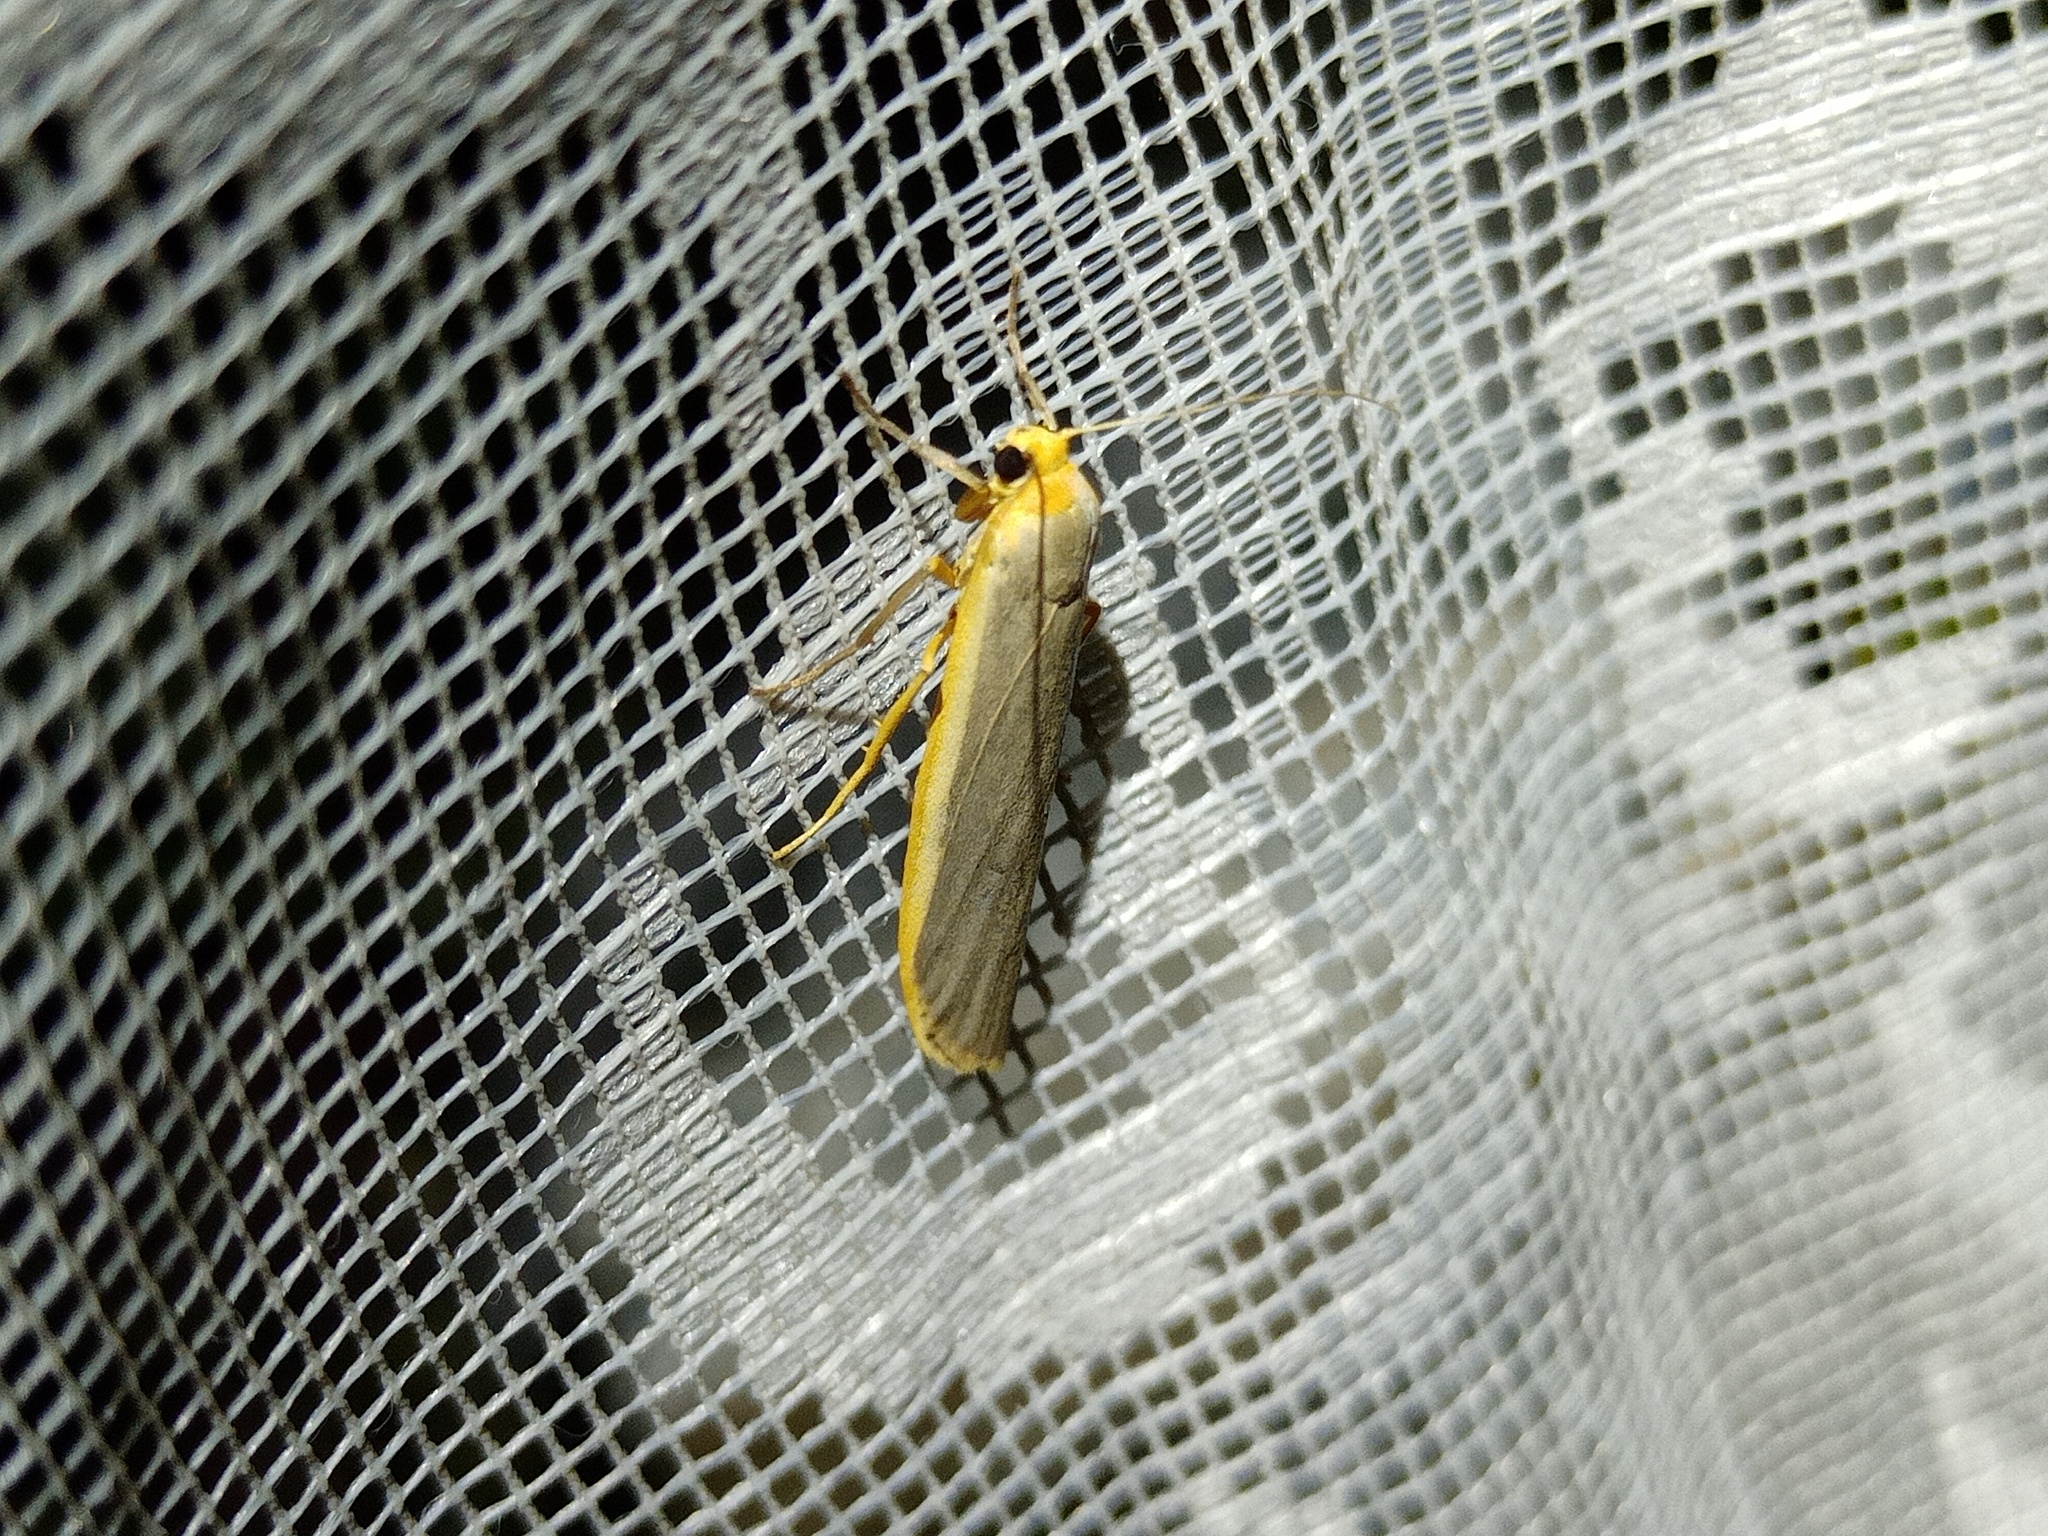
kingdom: Animalia
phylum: Arthropoda
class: Insecta
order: Lepidoptera
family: Erebidae
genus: Manulea
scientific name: Manulea complana
